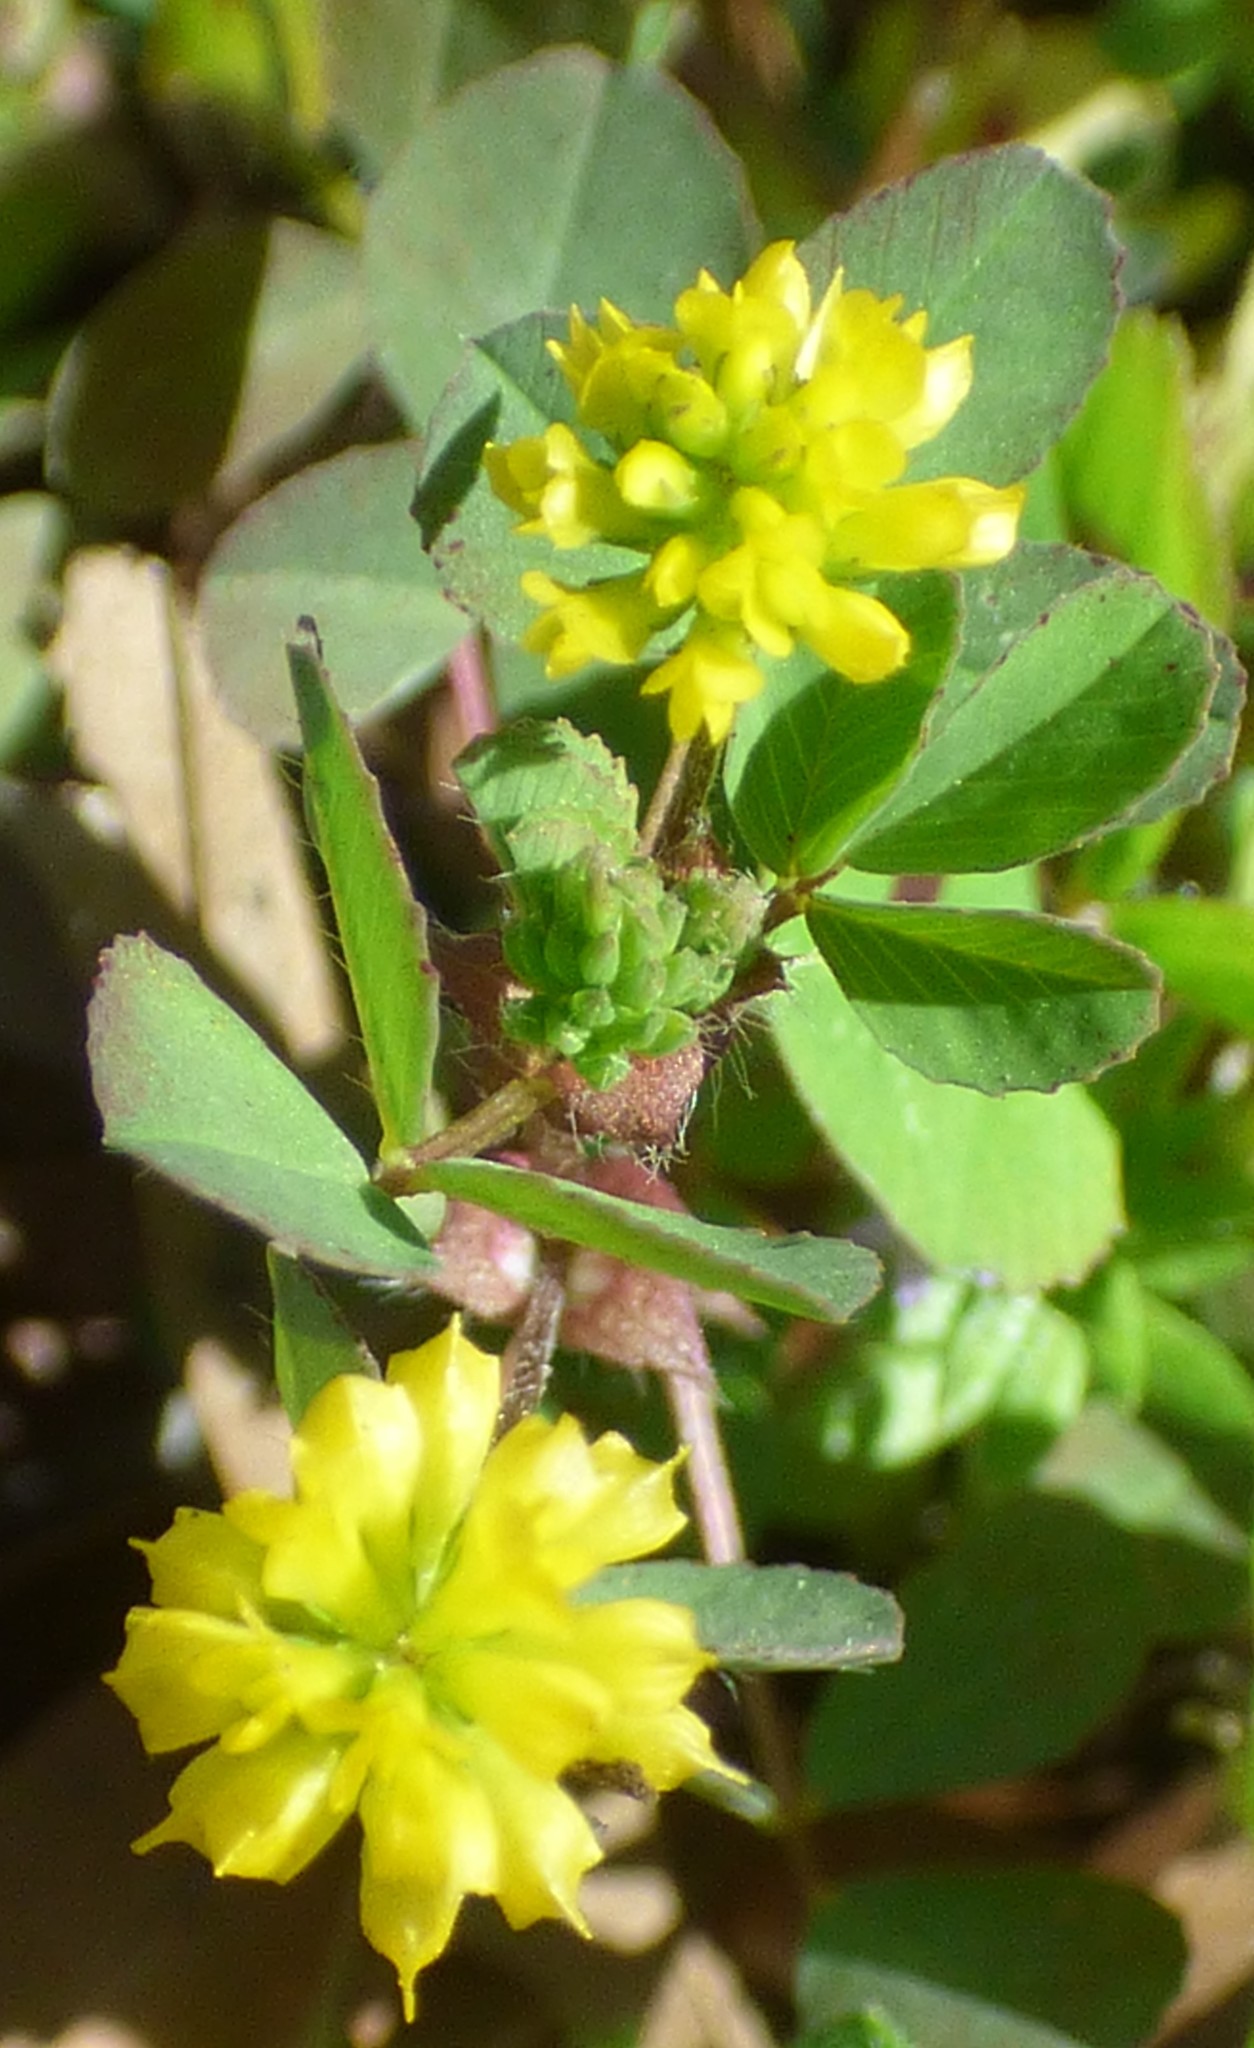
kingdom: Plantae
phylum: Tracheophyta
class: Magnoliopsida
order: Fabales
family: Fabaceae
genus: Trifolium
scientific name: Trifolium dubium
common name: Suckling clover
